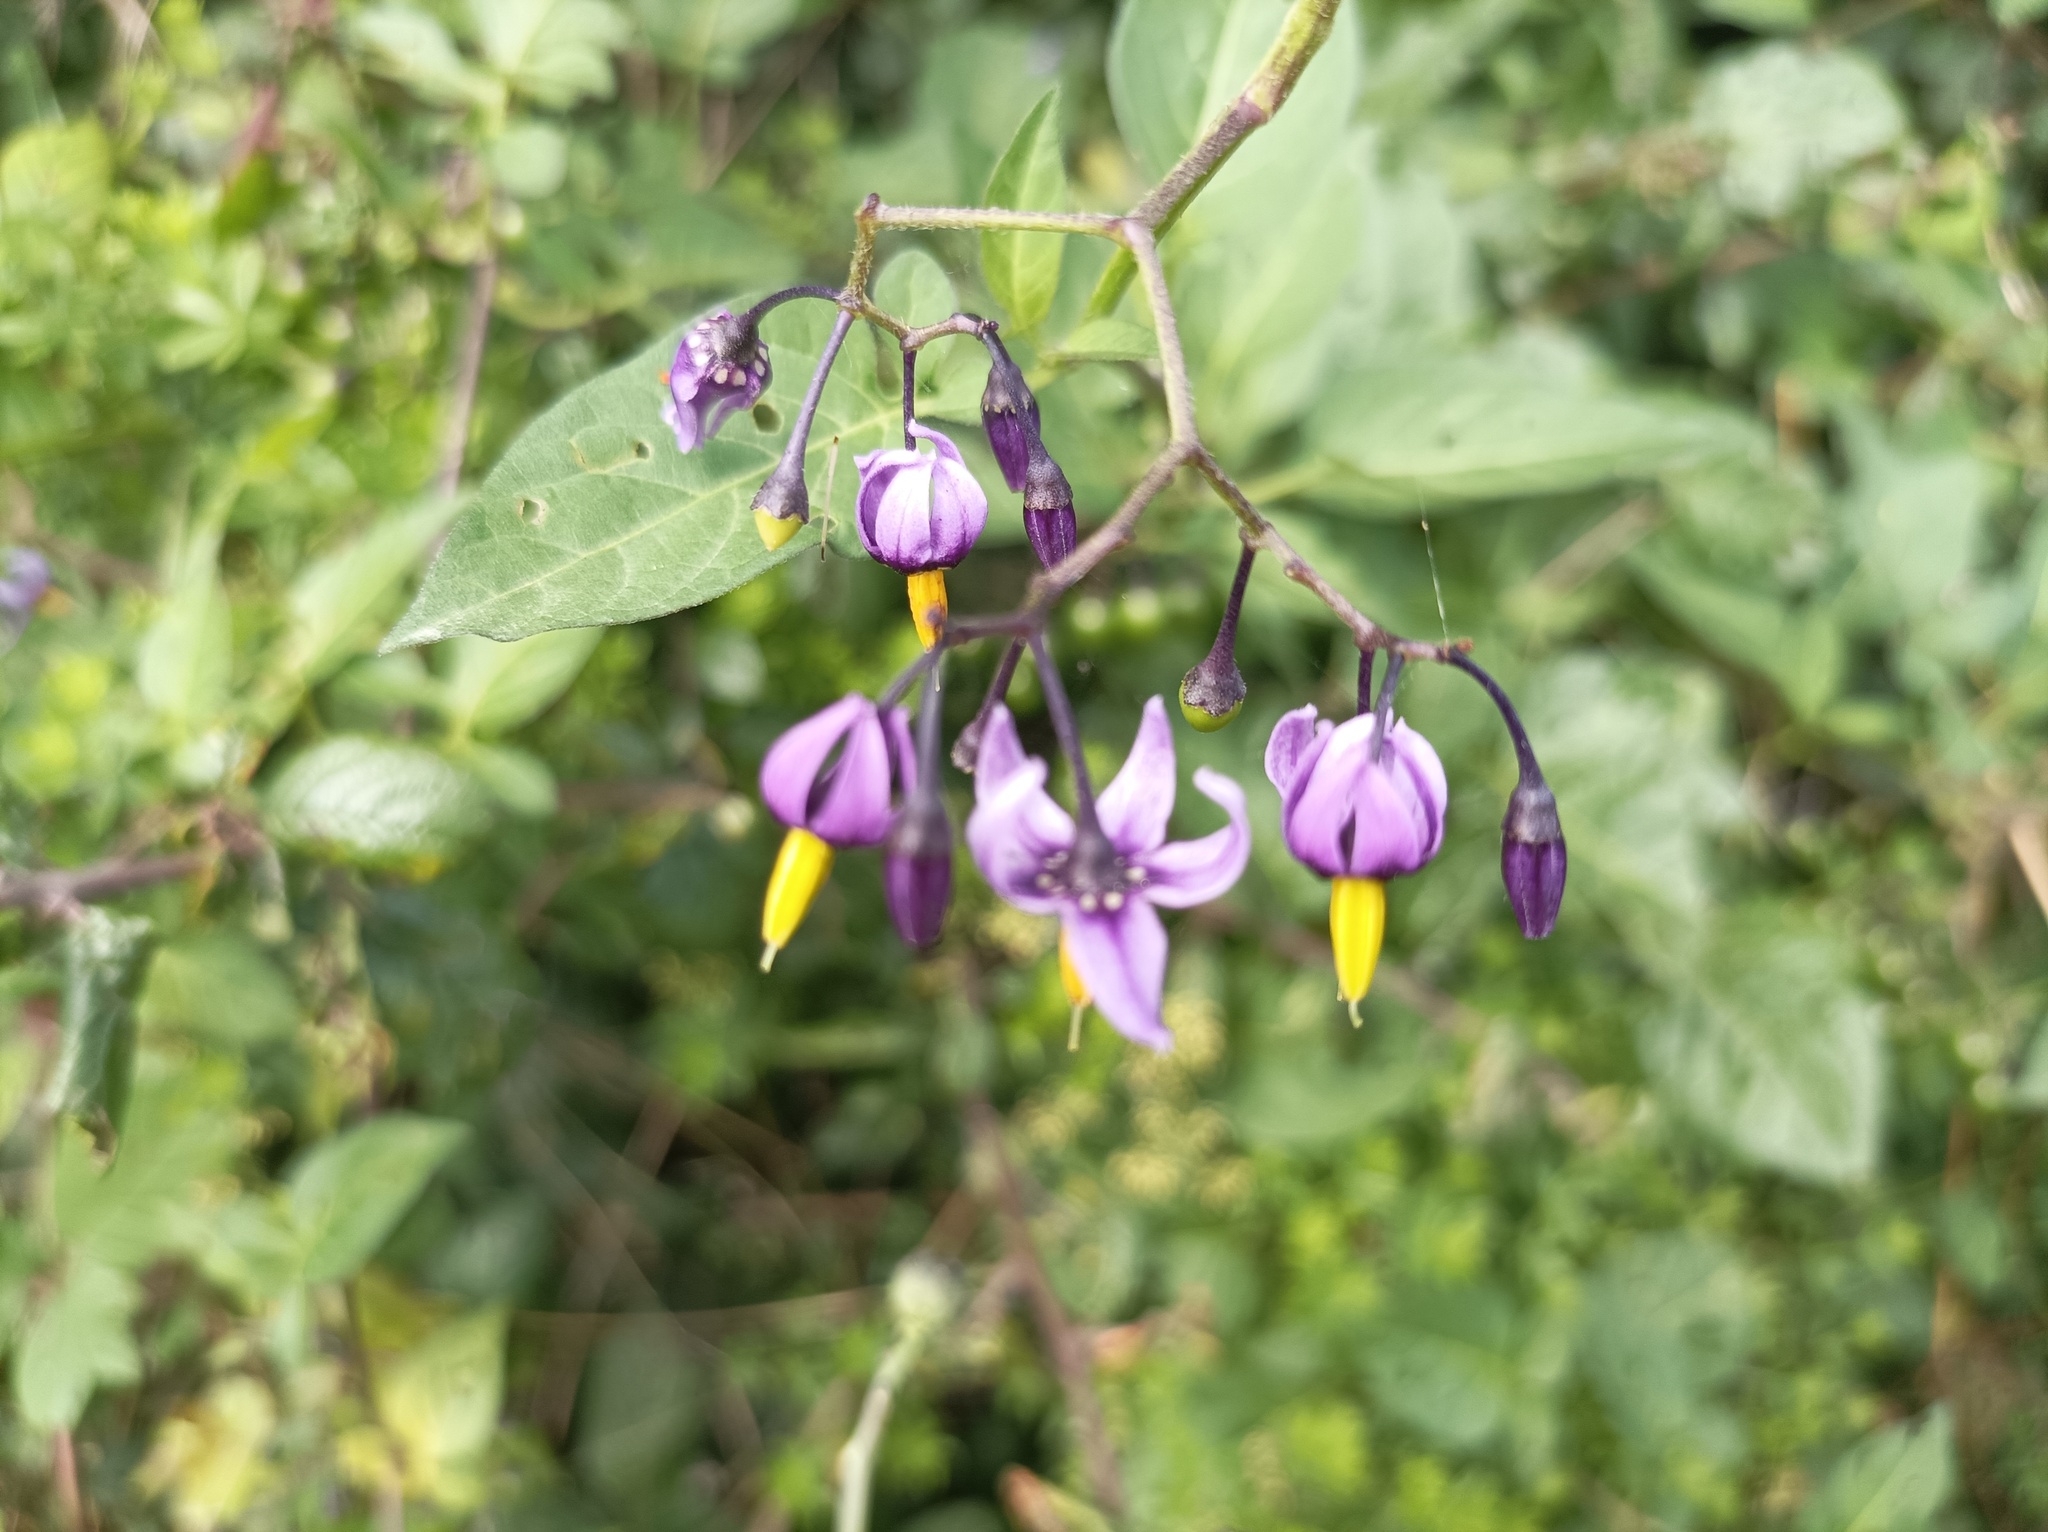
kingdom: Plantae
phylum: Tracheophyta
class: Magnoliopsida
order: Solanales
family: Solanaceae
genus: Solanum
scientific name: Solanum dulcamara
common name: Climbing nightshade
